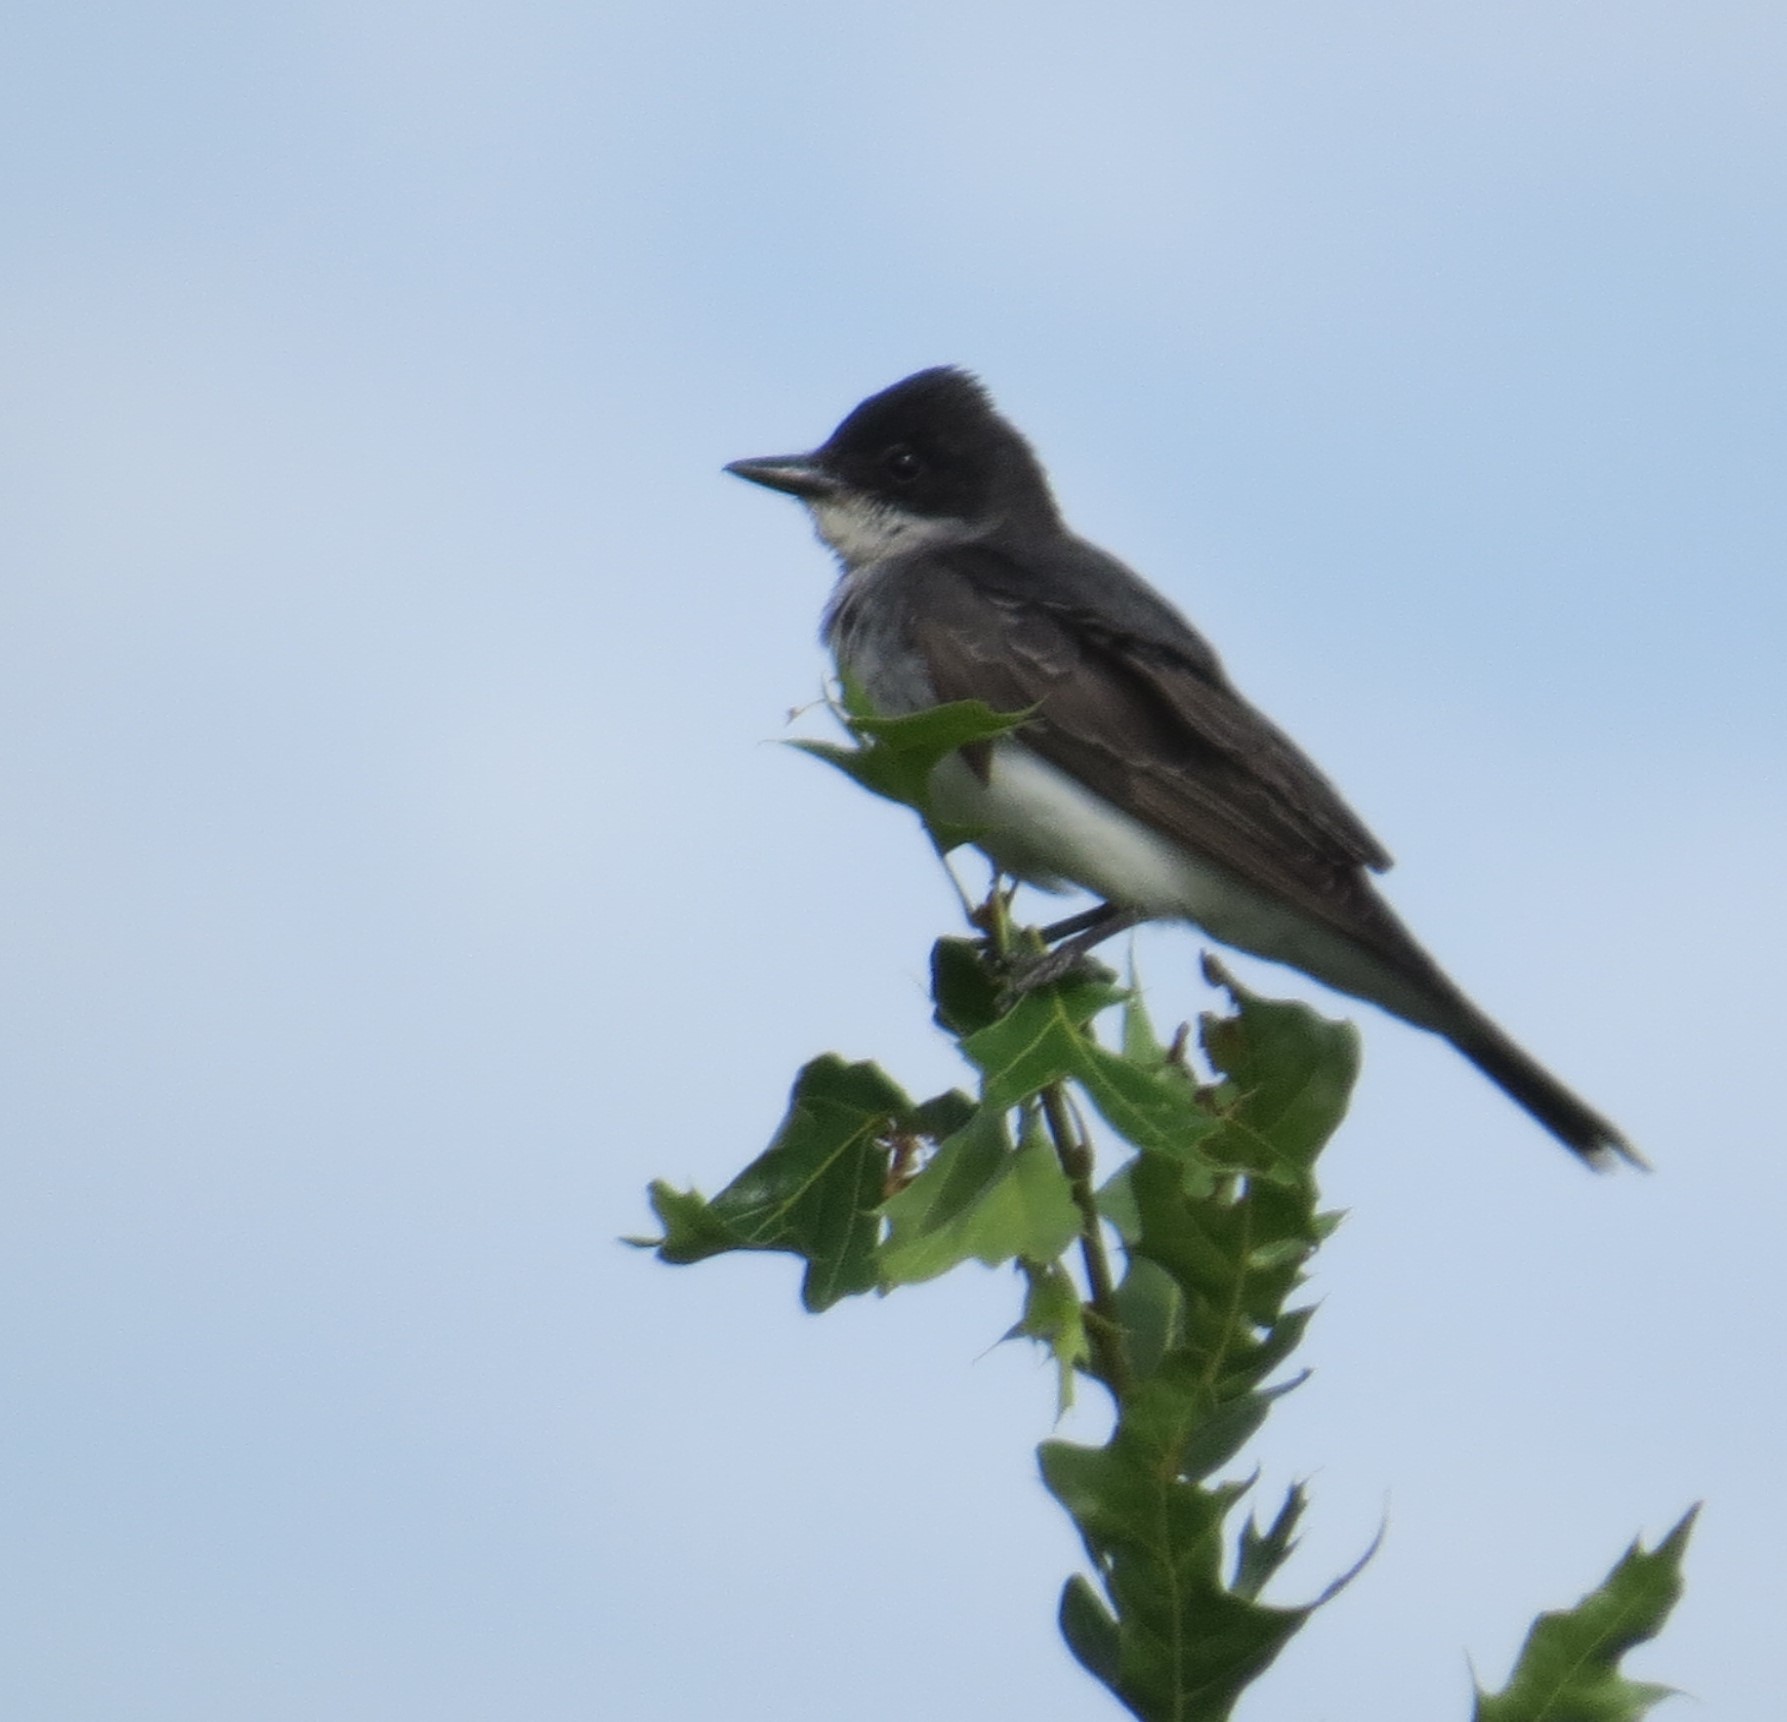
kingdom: Animalia
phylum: Chordata
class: Aves
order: Passeriformes
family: Tyrannidae
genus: Tyrannus
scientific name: Tyrannus tyrannus
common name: Eastern kingbird
